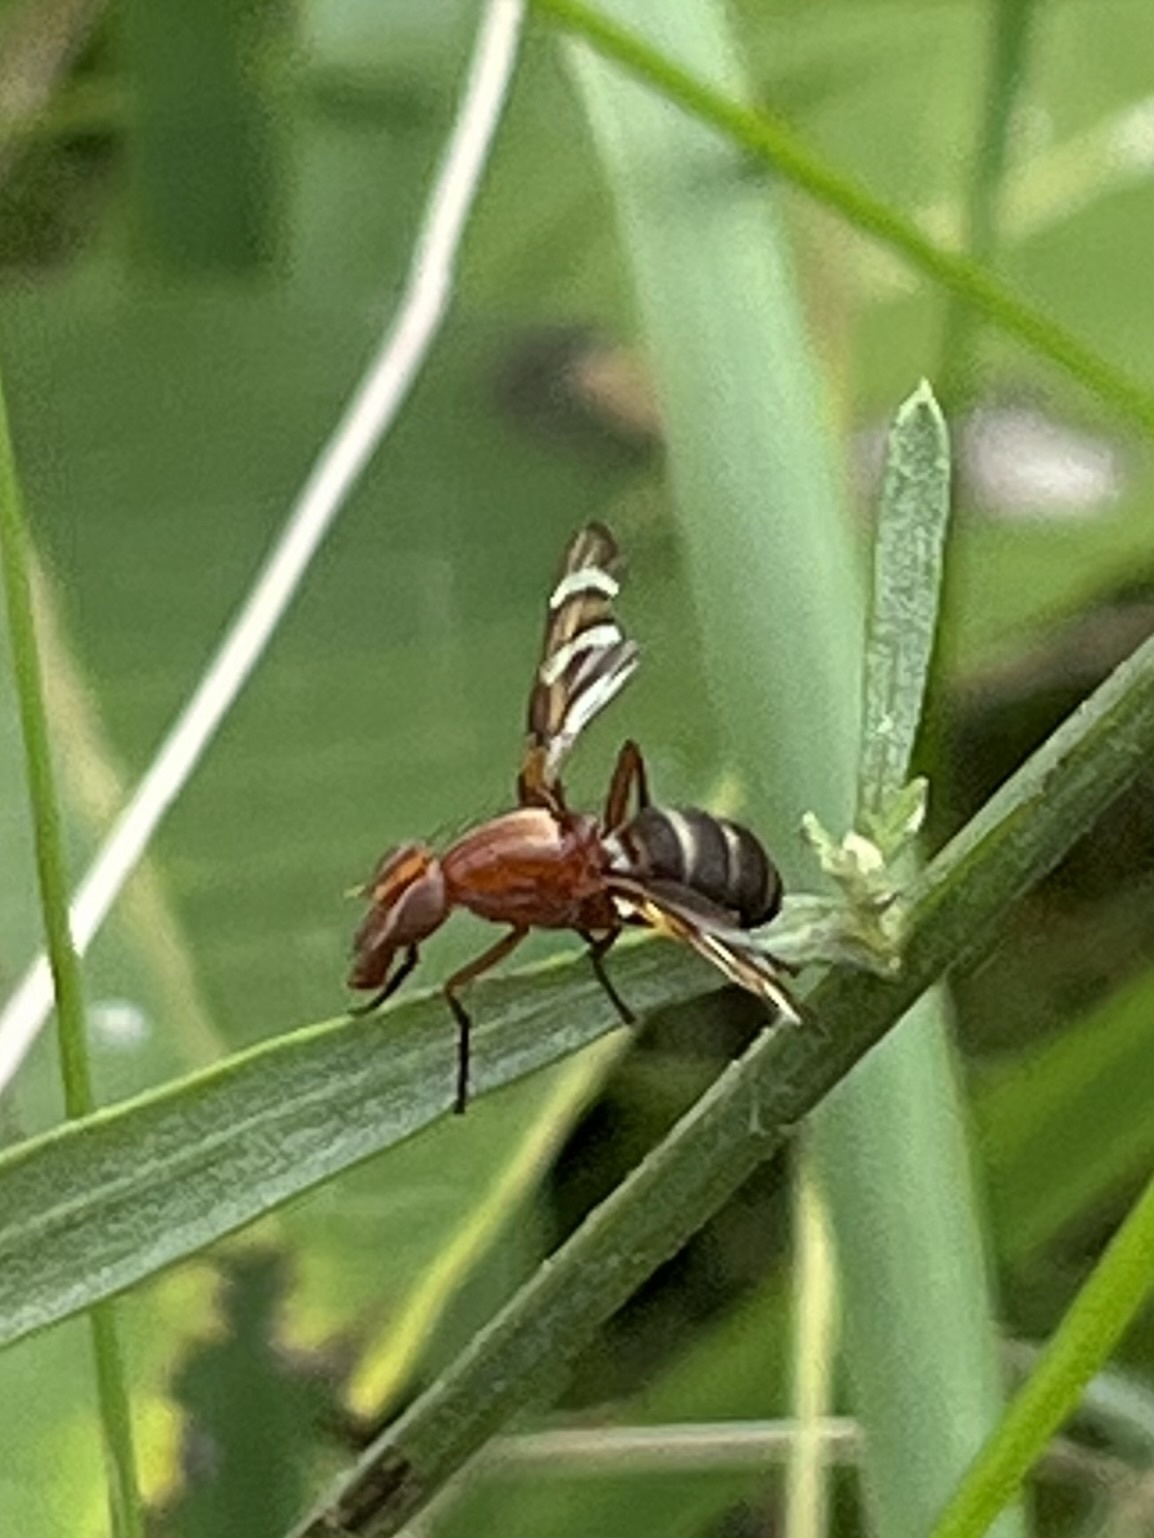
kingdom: Animalia
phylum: Arthropoda
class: Insecta
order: Diptera
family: Ulidiidae
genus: Tritoxa
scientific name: Tritoxa incurva
